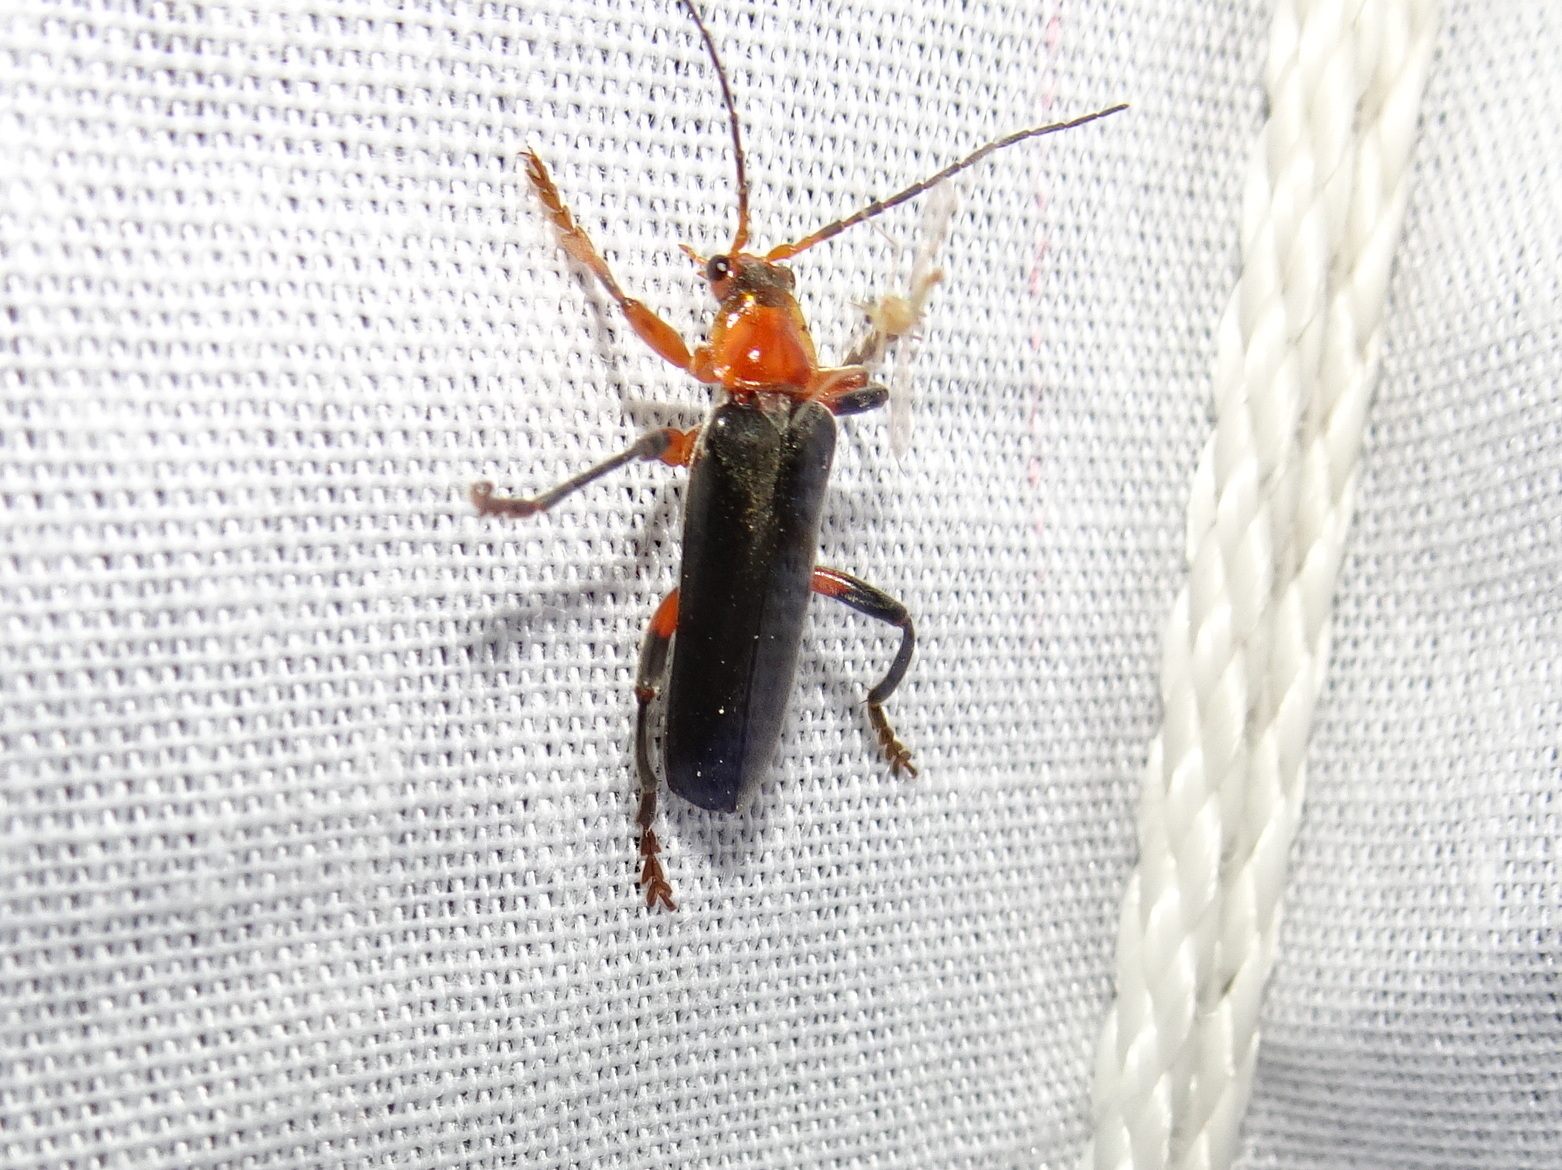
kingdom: Animalia
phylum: Arthropoda
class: Insecta
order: Coleoptera
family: Cantharidae
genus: Cantharis
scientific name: Cantharis livida
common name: Livid soldier beetle
